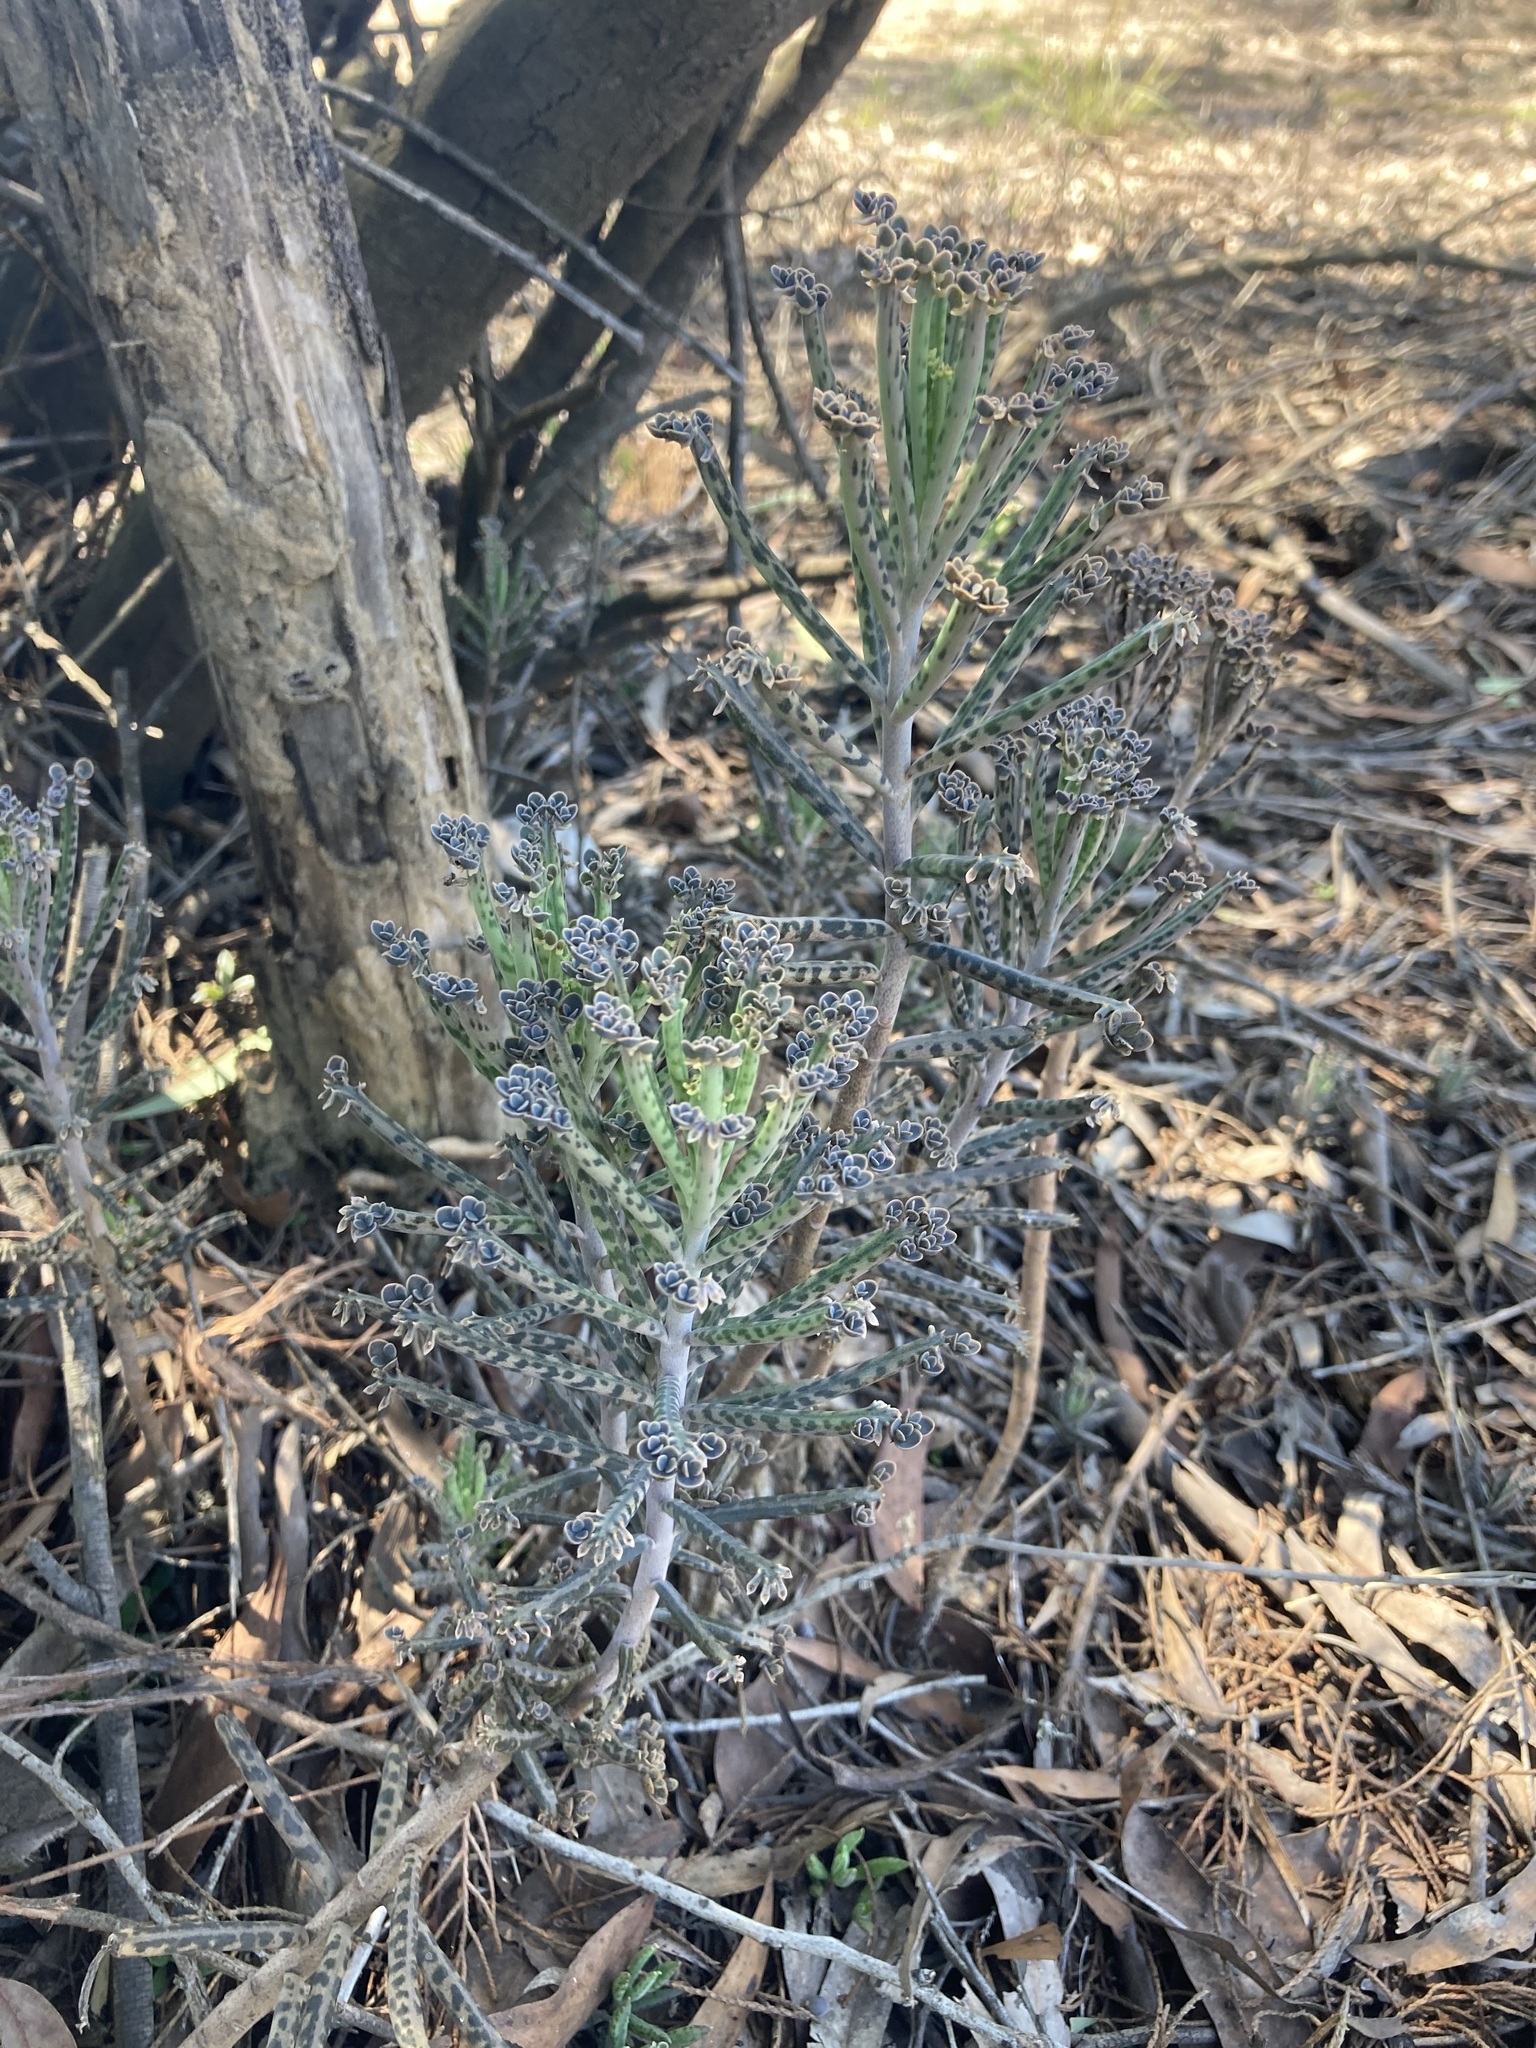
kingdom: Plantae
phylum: Tracheophyta
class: Magnoliopsida
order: Saxifragales
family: Crassulaceae
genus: Kalanchoe
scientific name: Kalanchoe delagoensis
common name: Chandelier plant
